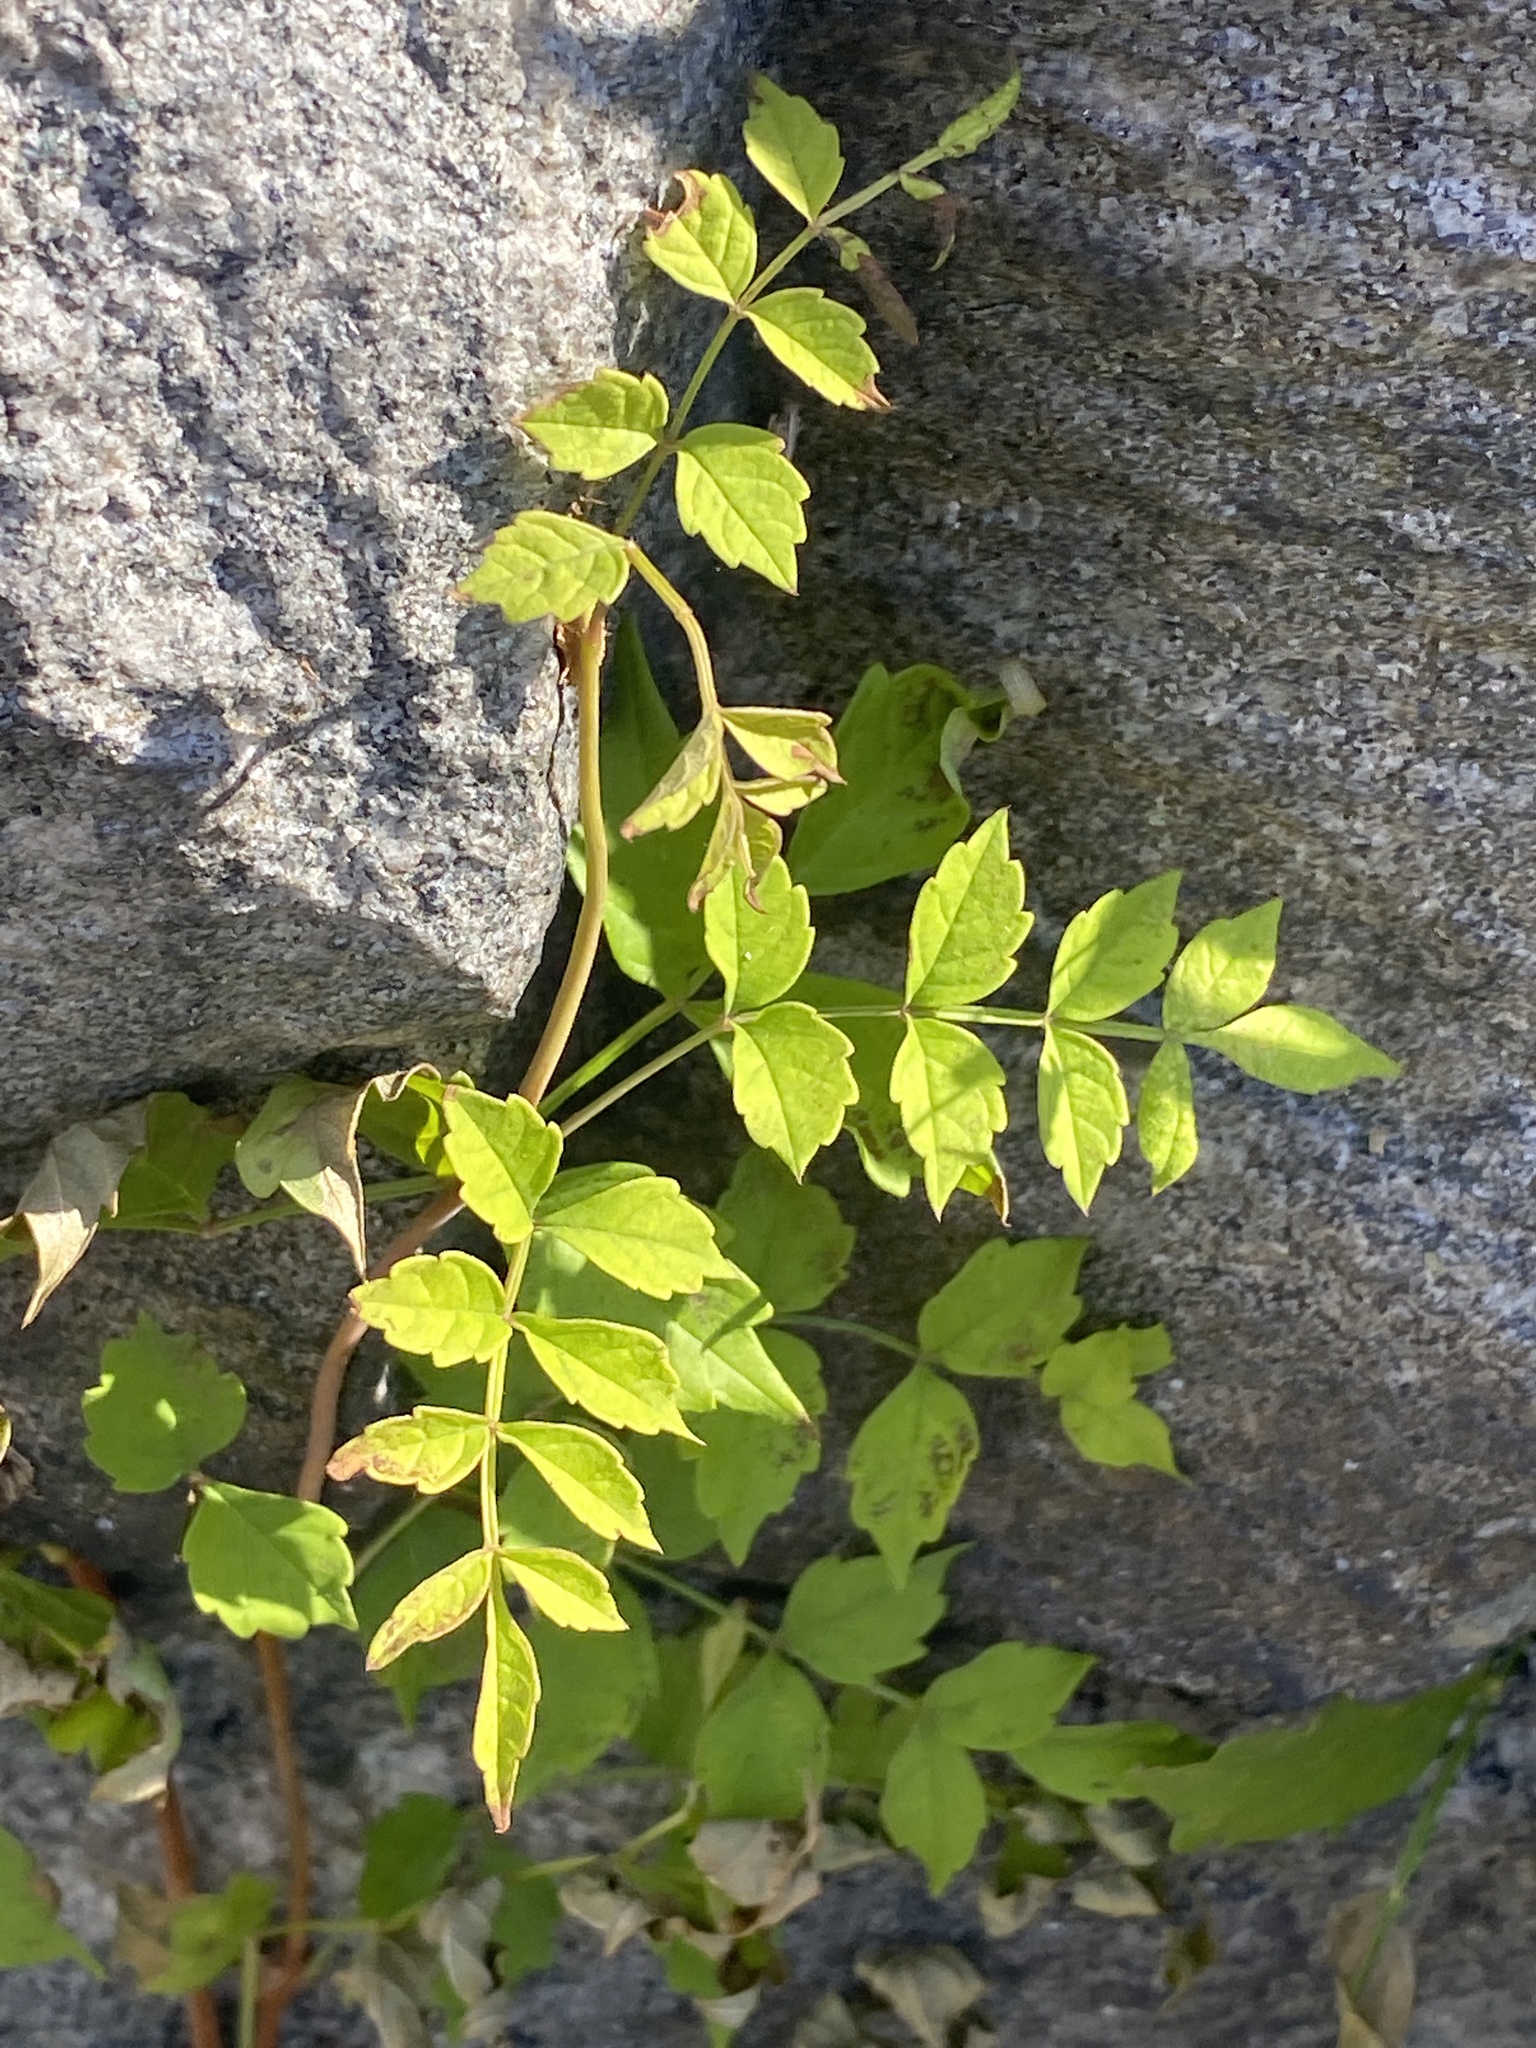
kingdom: Plantae
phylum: Tracheophyta
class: Magnoliopsida
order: Lamiales
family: Bignoniaceae
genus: Campsis
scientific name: Campsis radicans
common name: Trumpet-creeper
